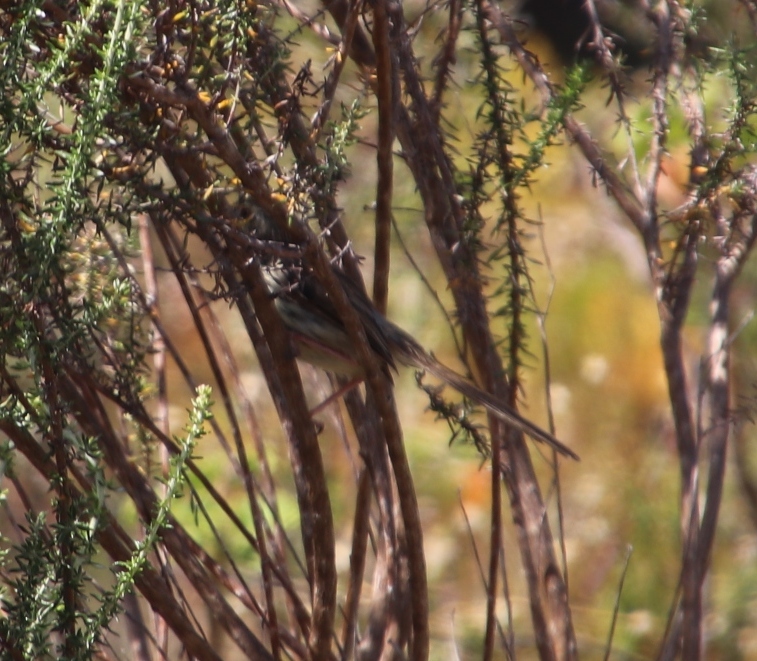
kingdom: Animalia
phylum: Chordata
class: Aves
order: Passeriformes
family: Cisticolidae
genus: Prinia
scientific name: Prinia maculosa
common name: Karoo prinia
